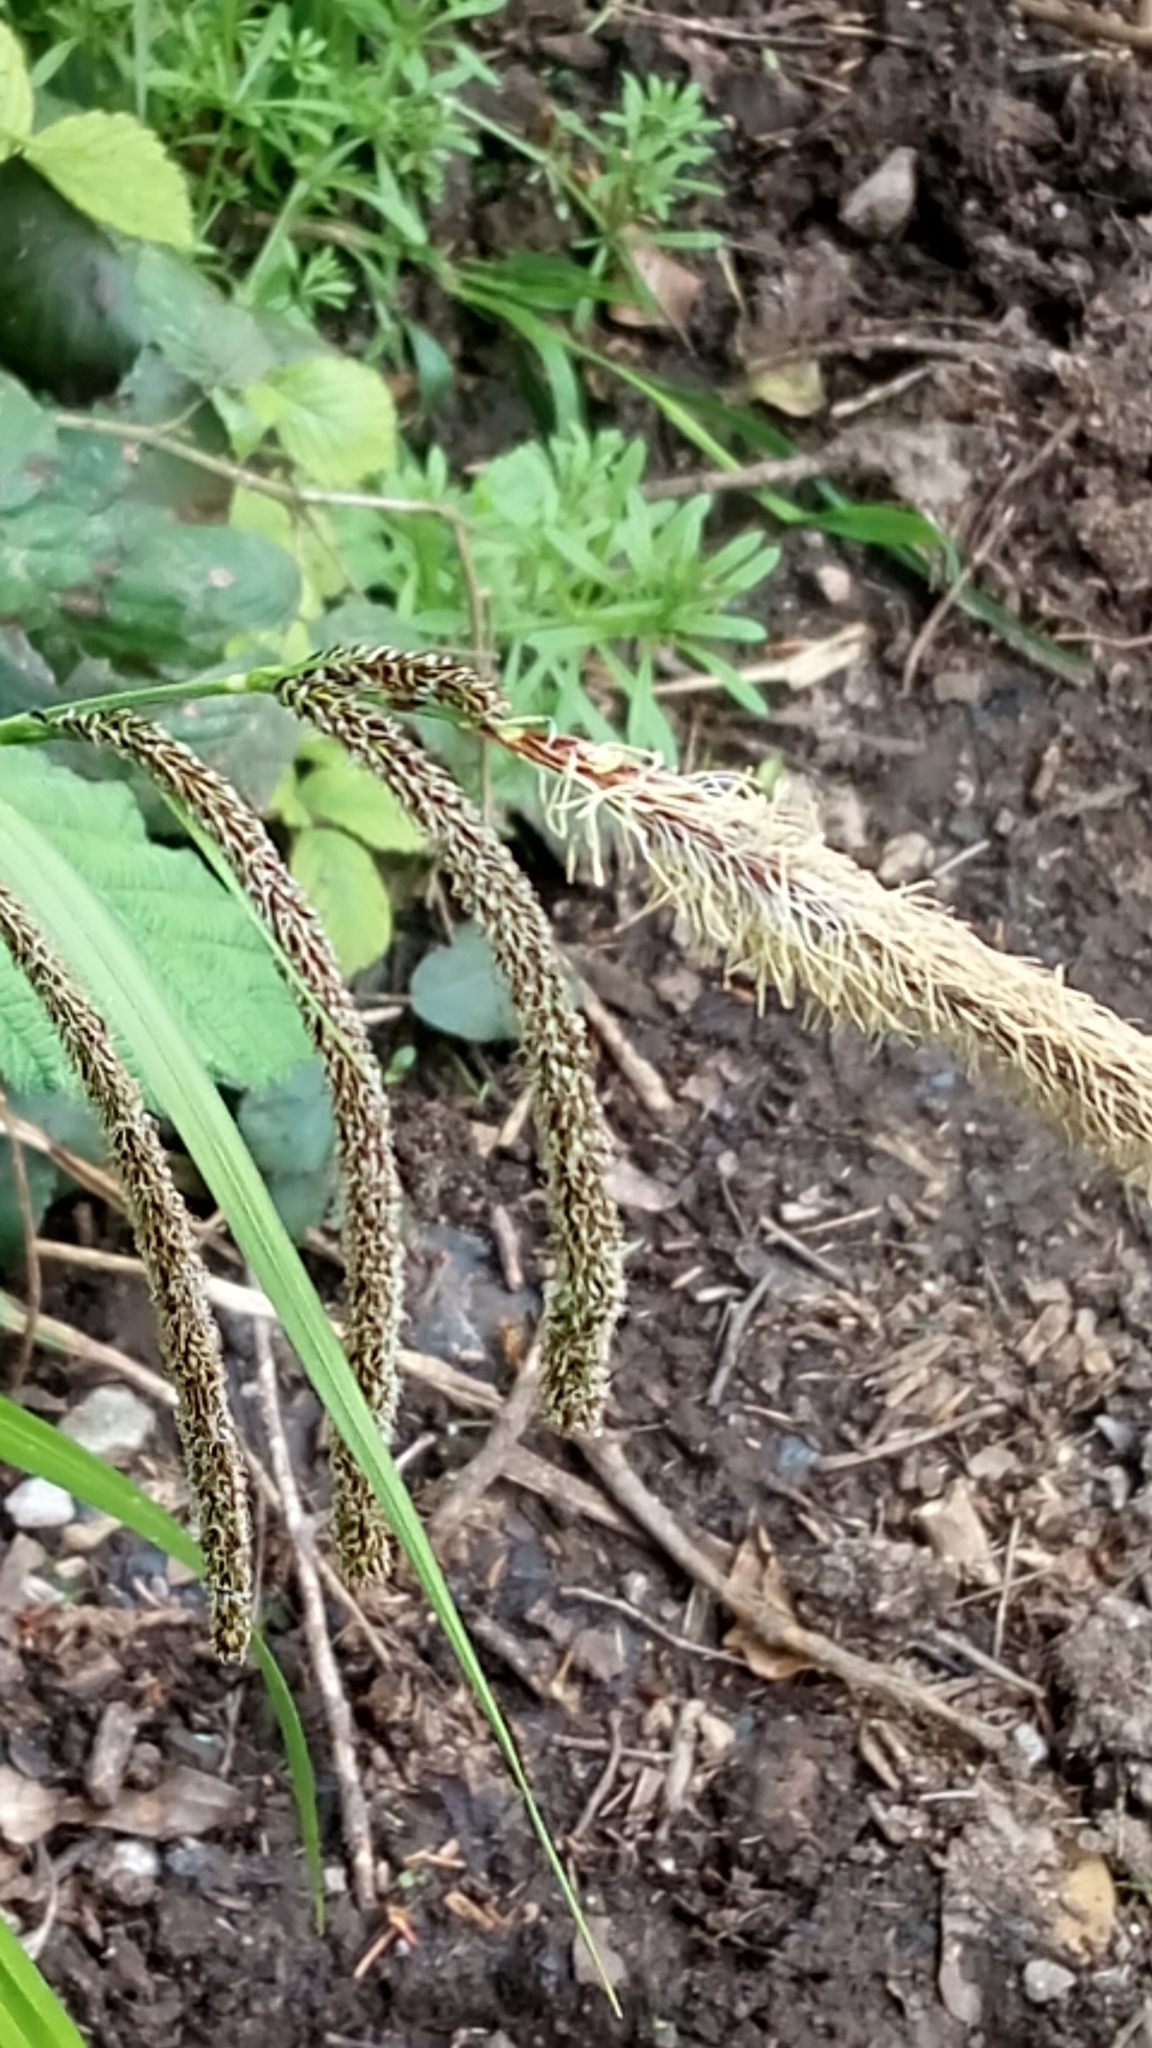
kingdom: Plantae
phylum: Tracheophyta
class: Liliopsida
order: Poales
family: Cyperaceae
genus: Carex
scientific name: Carex pendula
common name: Pendulous sedge
